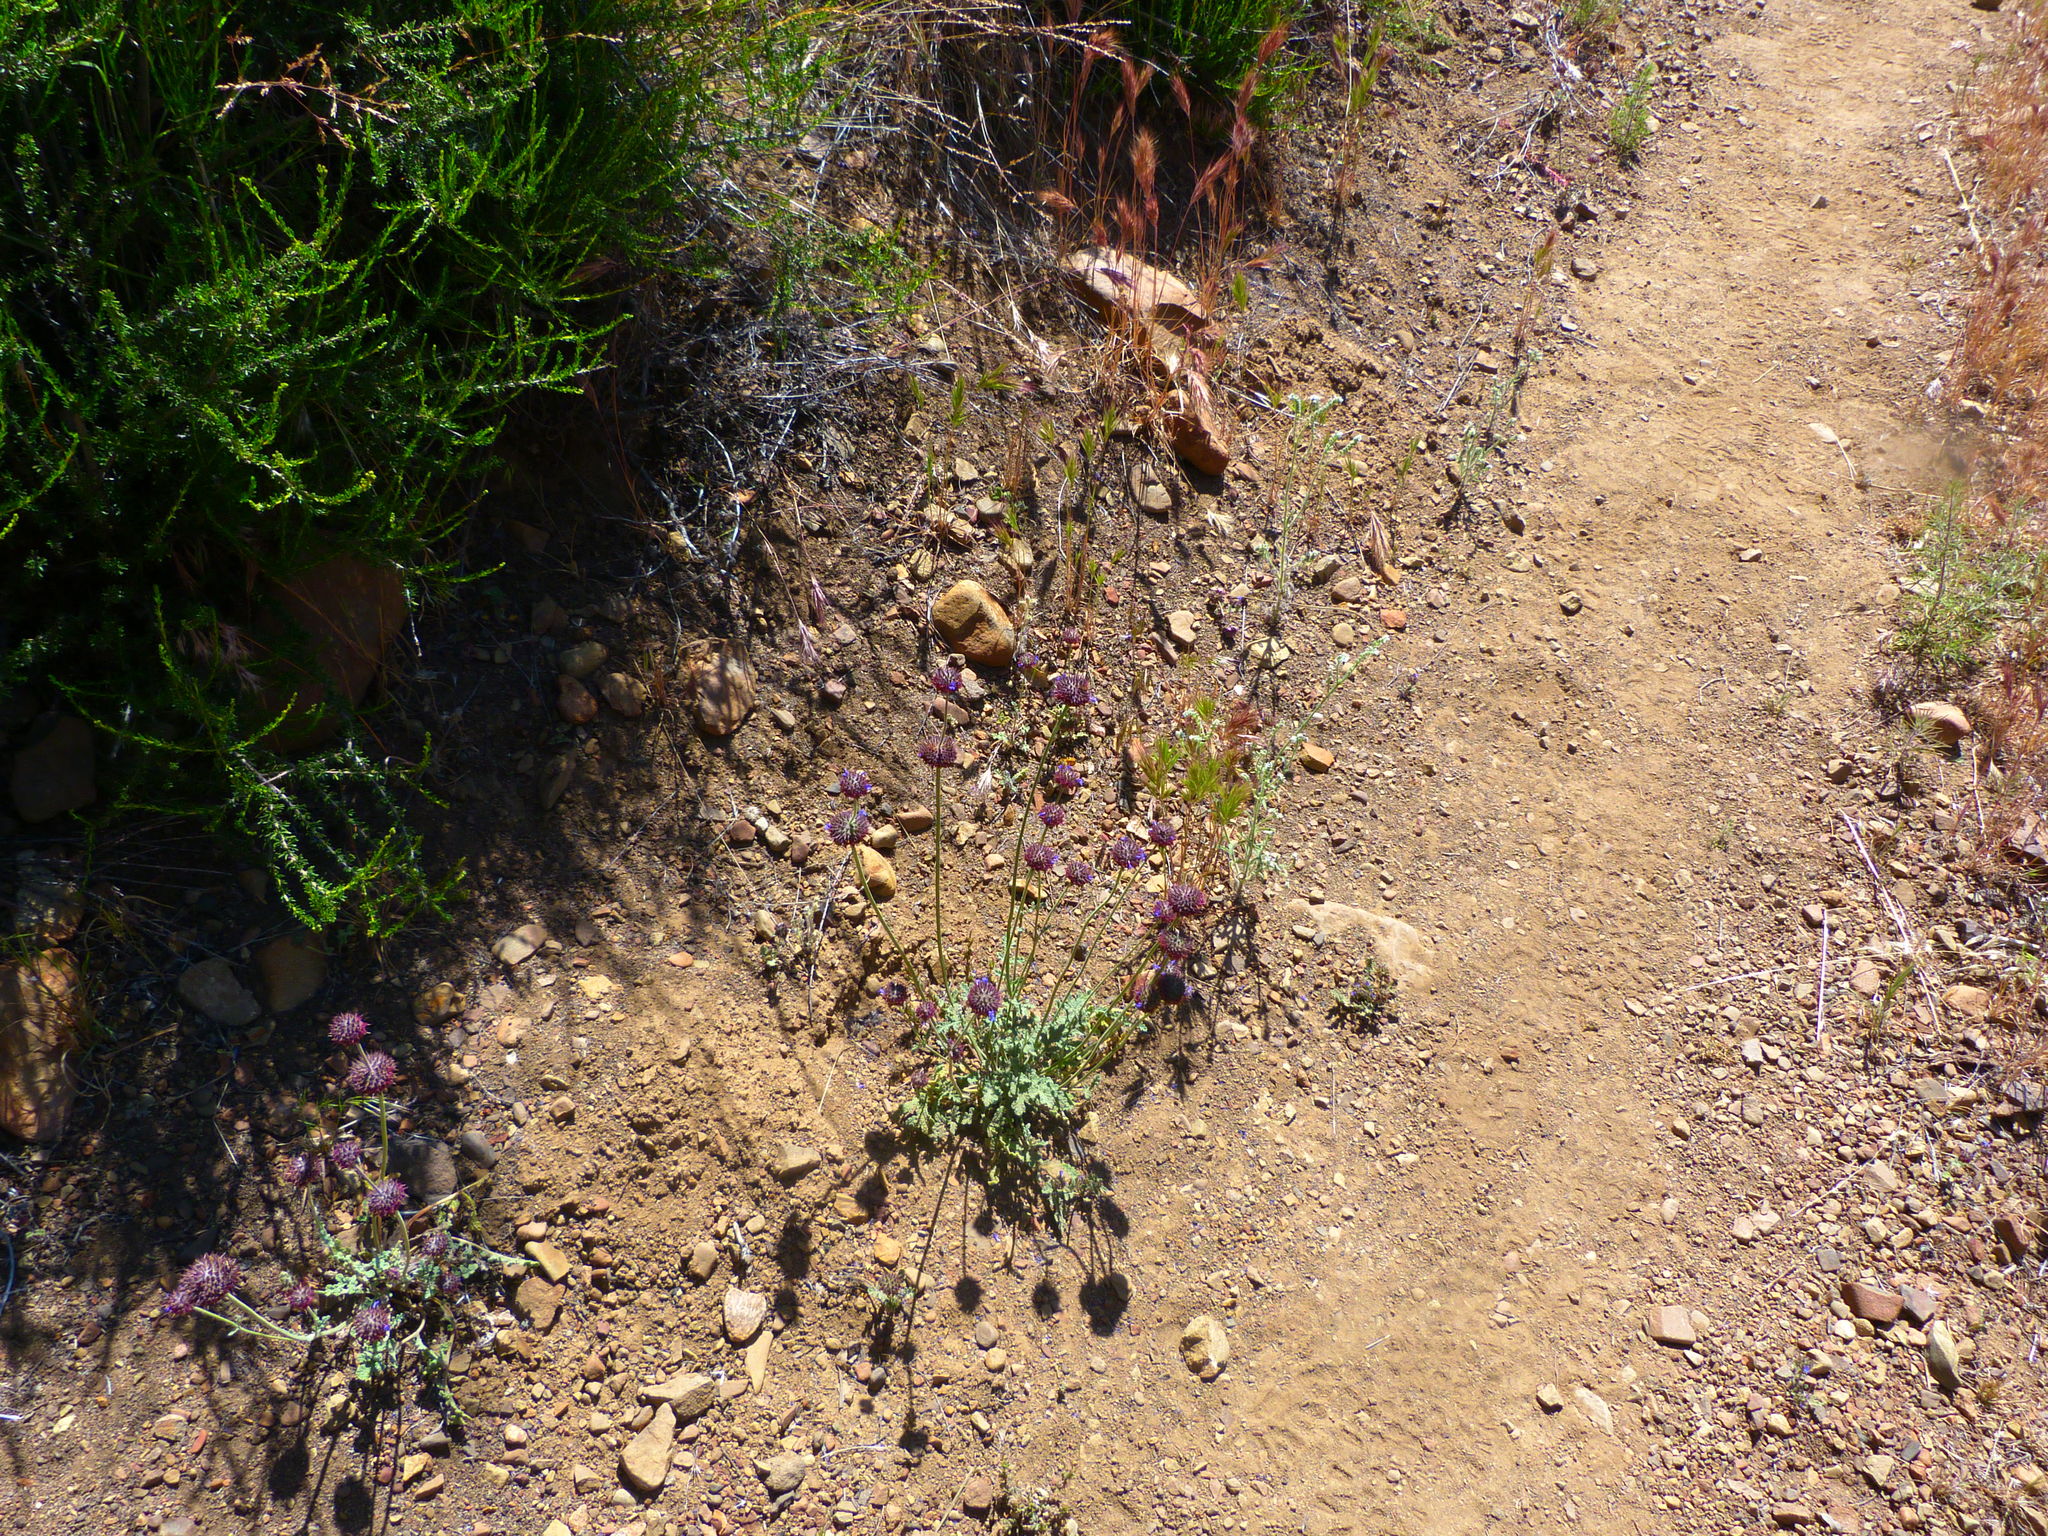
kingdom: Plantae
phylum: Tracheophyta
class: Magnoliopsida
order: Lamiales
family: Lamiaceae
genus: Salvia
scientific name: Salvia columbariae
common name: Chia
